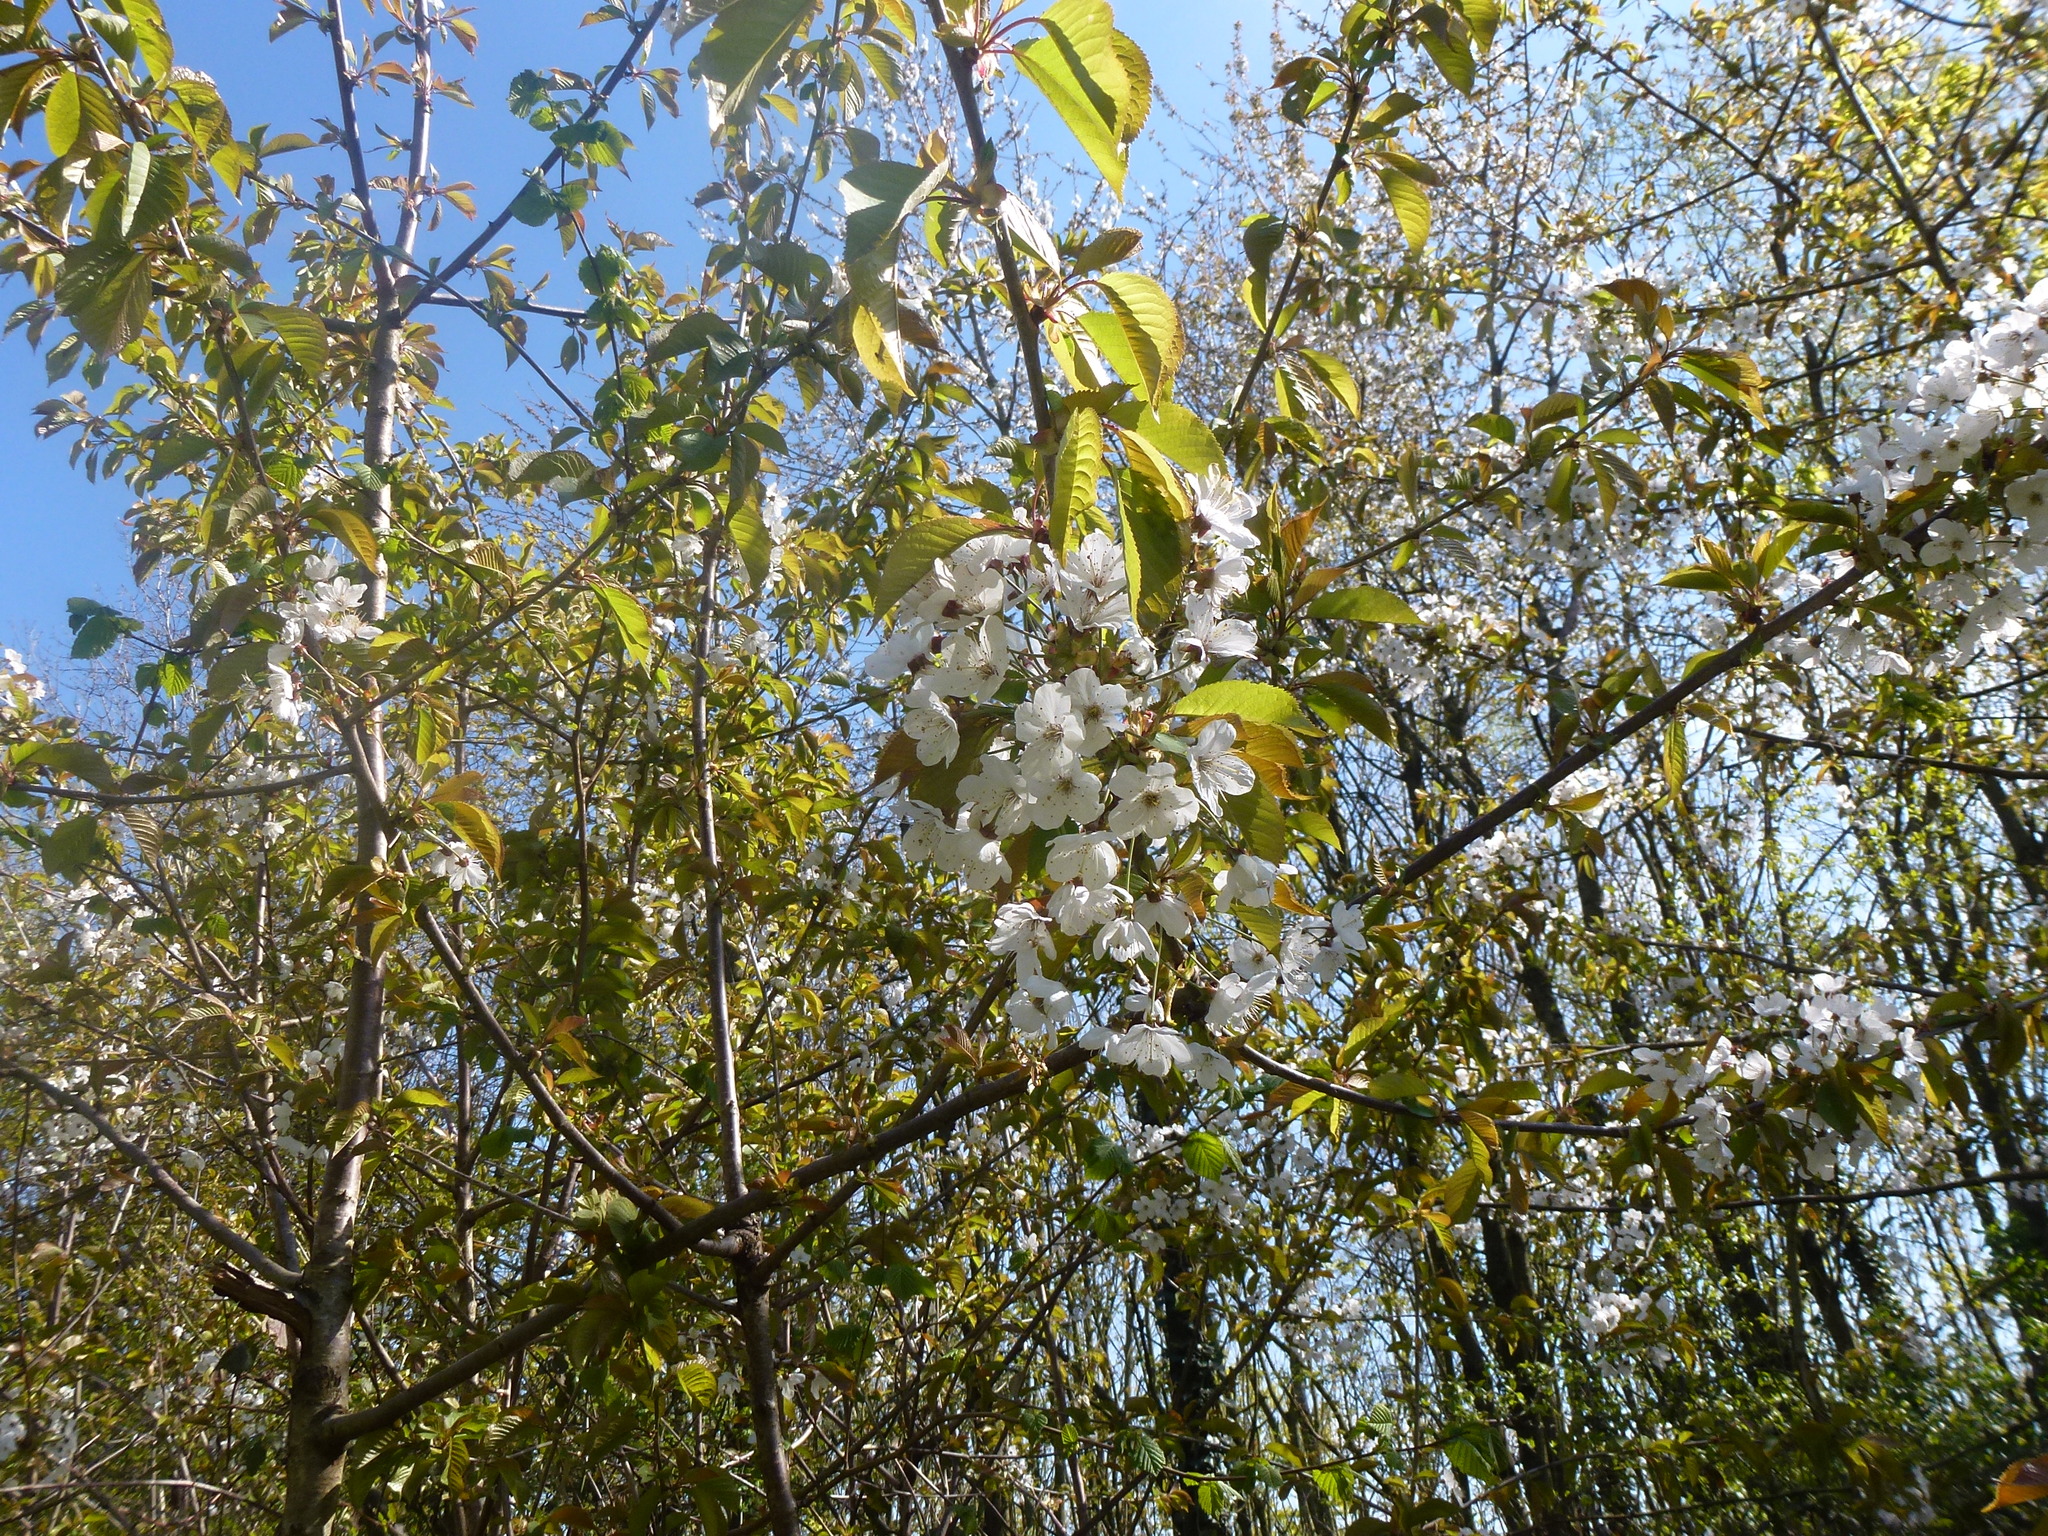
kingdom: Plantae
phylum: Tracheophyta
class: Magnoliopsida
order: Rosales
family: Rosaceae
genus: Prunus
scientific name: Prunus avium
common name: Sweet cherry
